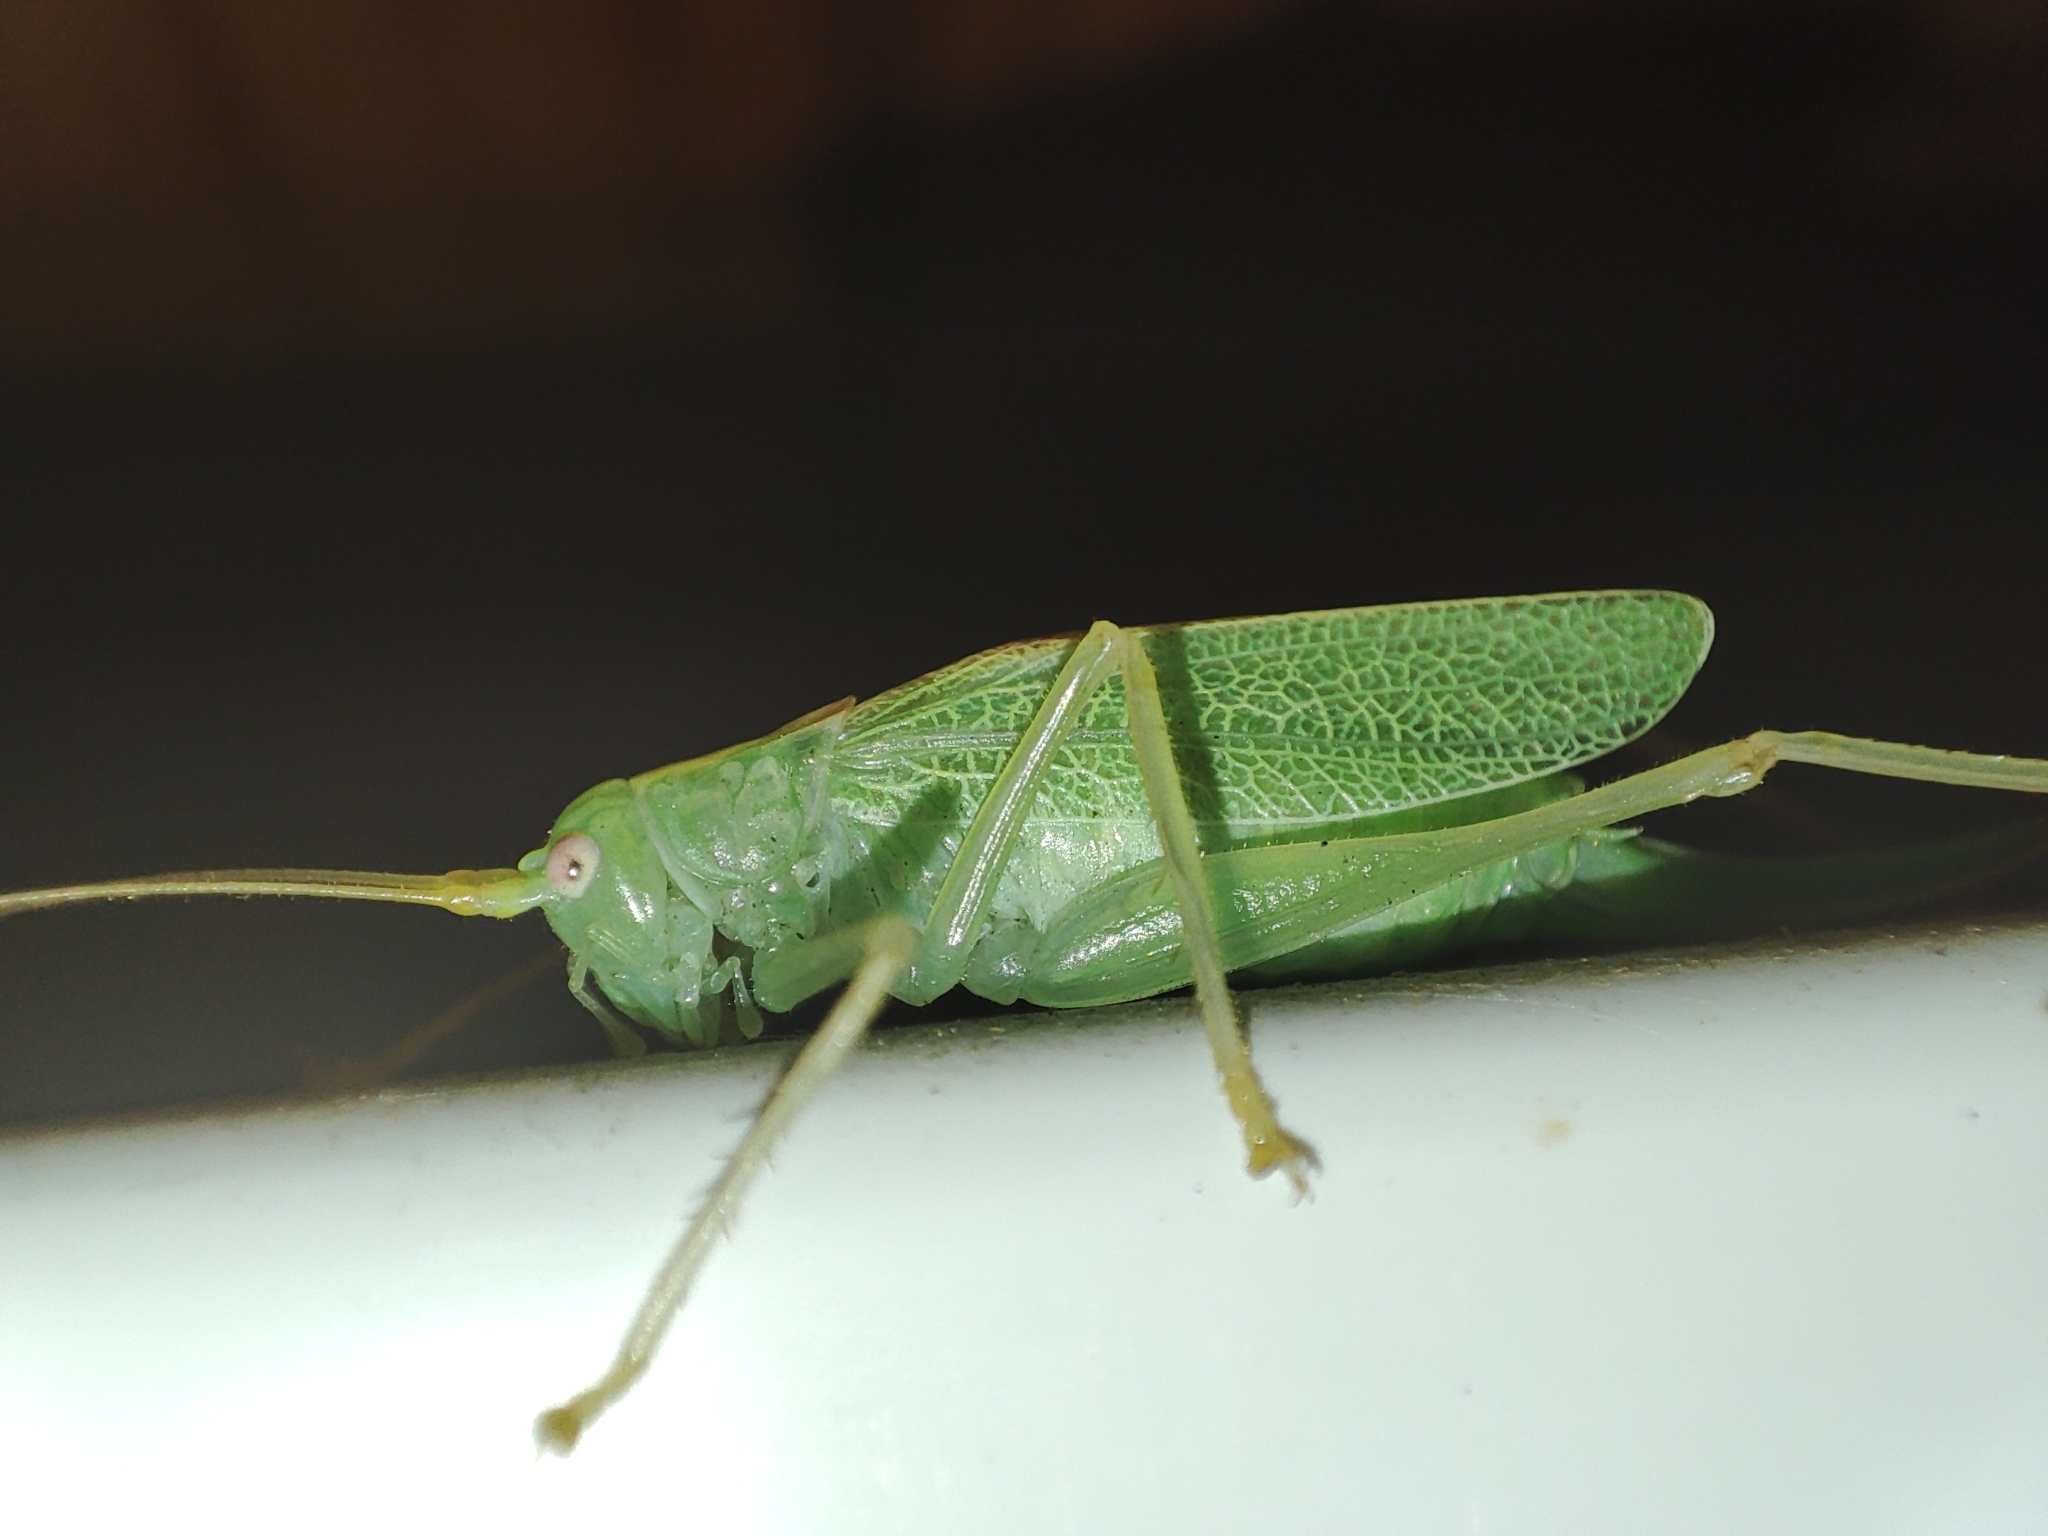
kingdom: Animalia
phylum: Arthropoda
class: Insecta
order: Orthoptera
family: Tettigoniidae
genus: Meconema
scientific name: Meconema thalassinum
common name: Oak bush-cricket
